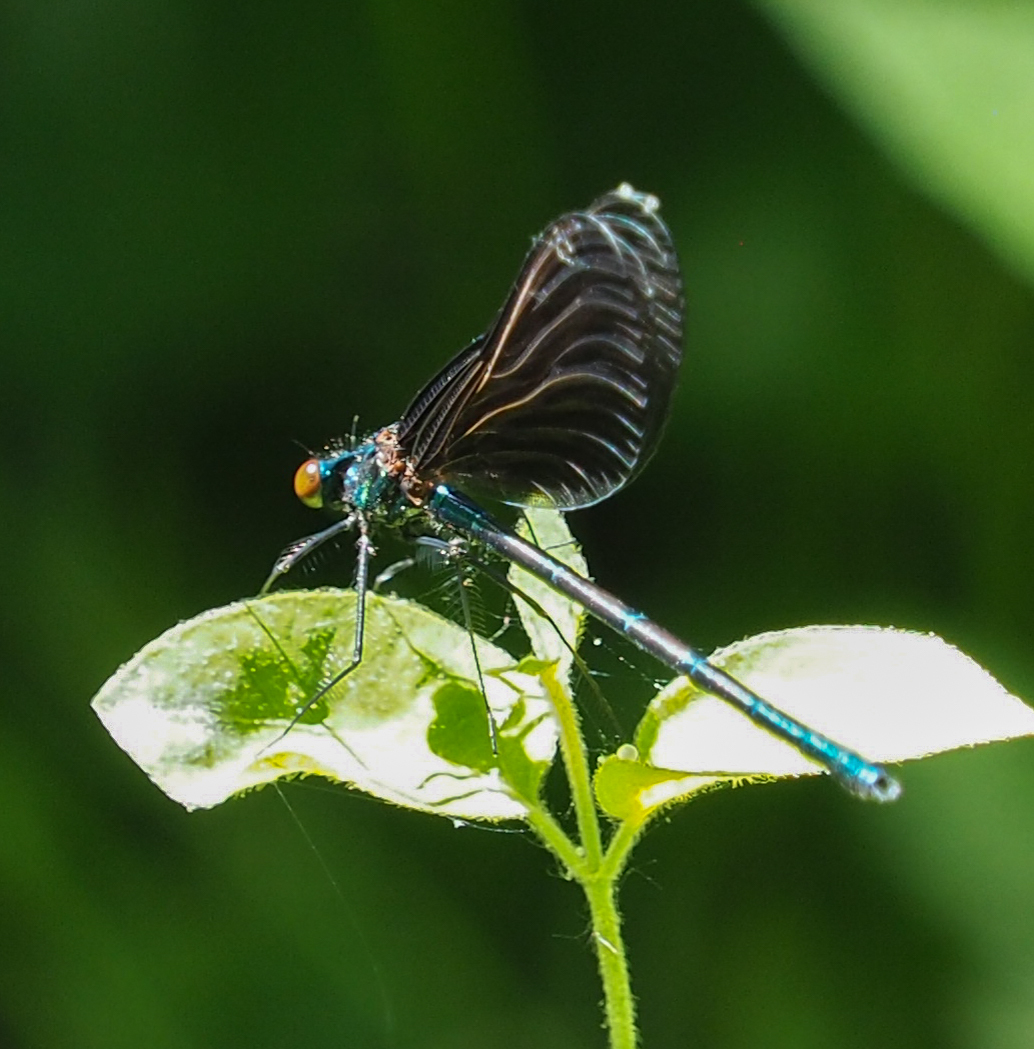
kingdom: Animalia
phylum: Arthropoda
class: Insecta
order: Odonata
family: Calopterygidae
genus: Calopteryx
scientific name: Calopteryx maculata
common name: Ebony jewelwing
